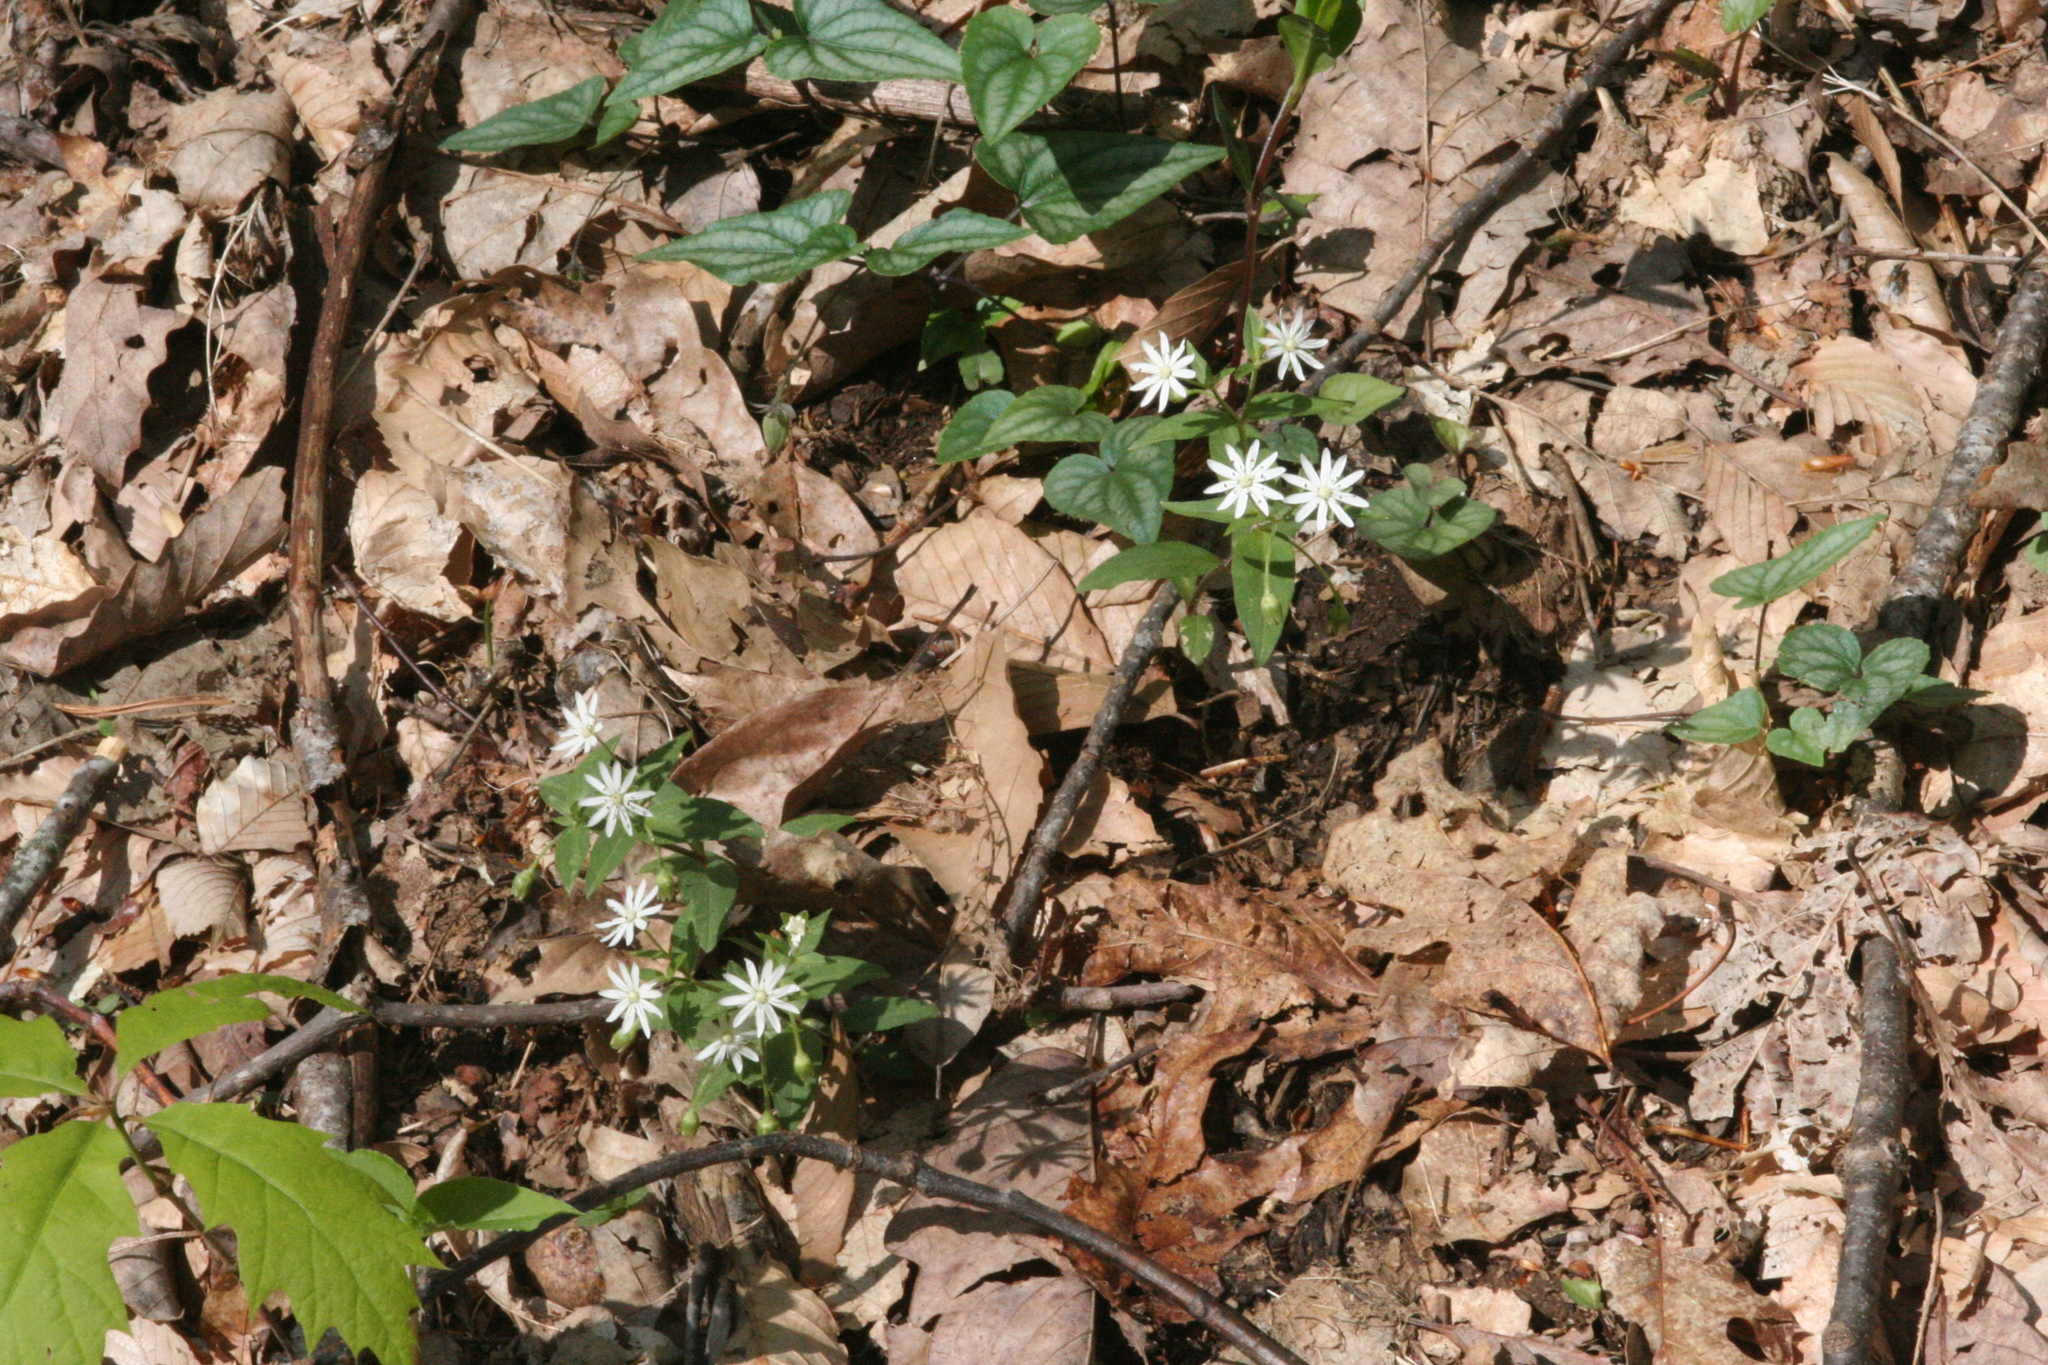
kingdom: Plantae
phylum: Tracheophyta
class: Magnoliopsida
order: Caryophyllales
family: Caryophyllaceae
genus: Stellaria
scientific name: Stellaria pubera
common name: Star chickweed
